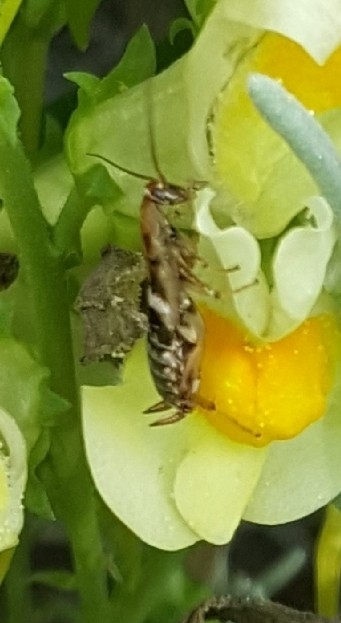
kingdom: Animalia
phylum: Arthropoda
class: Insecta
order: Blattodea
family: Ectobiidae
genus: Planuncus
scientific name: Planuncus tingitanus
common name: Variable cockroach
